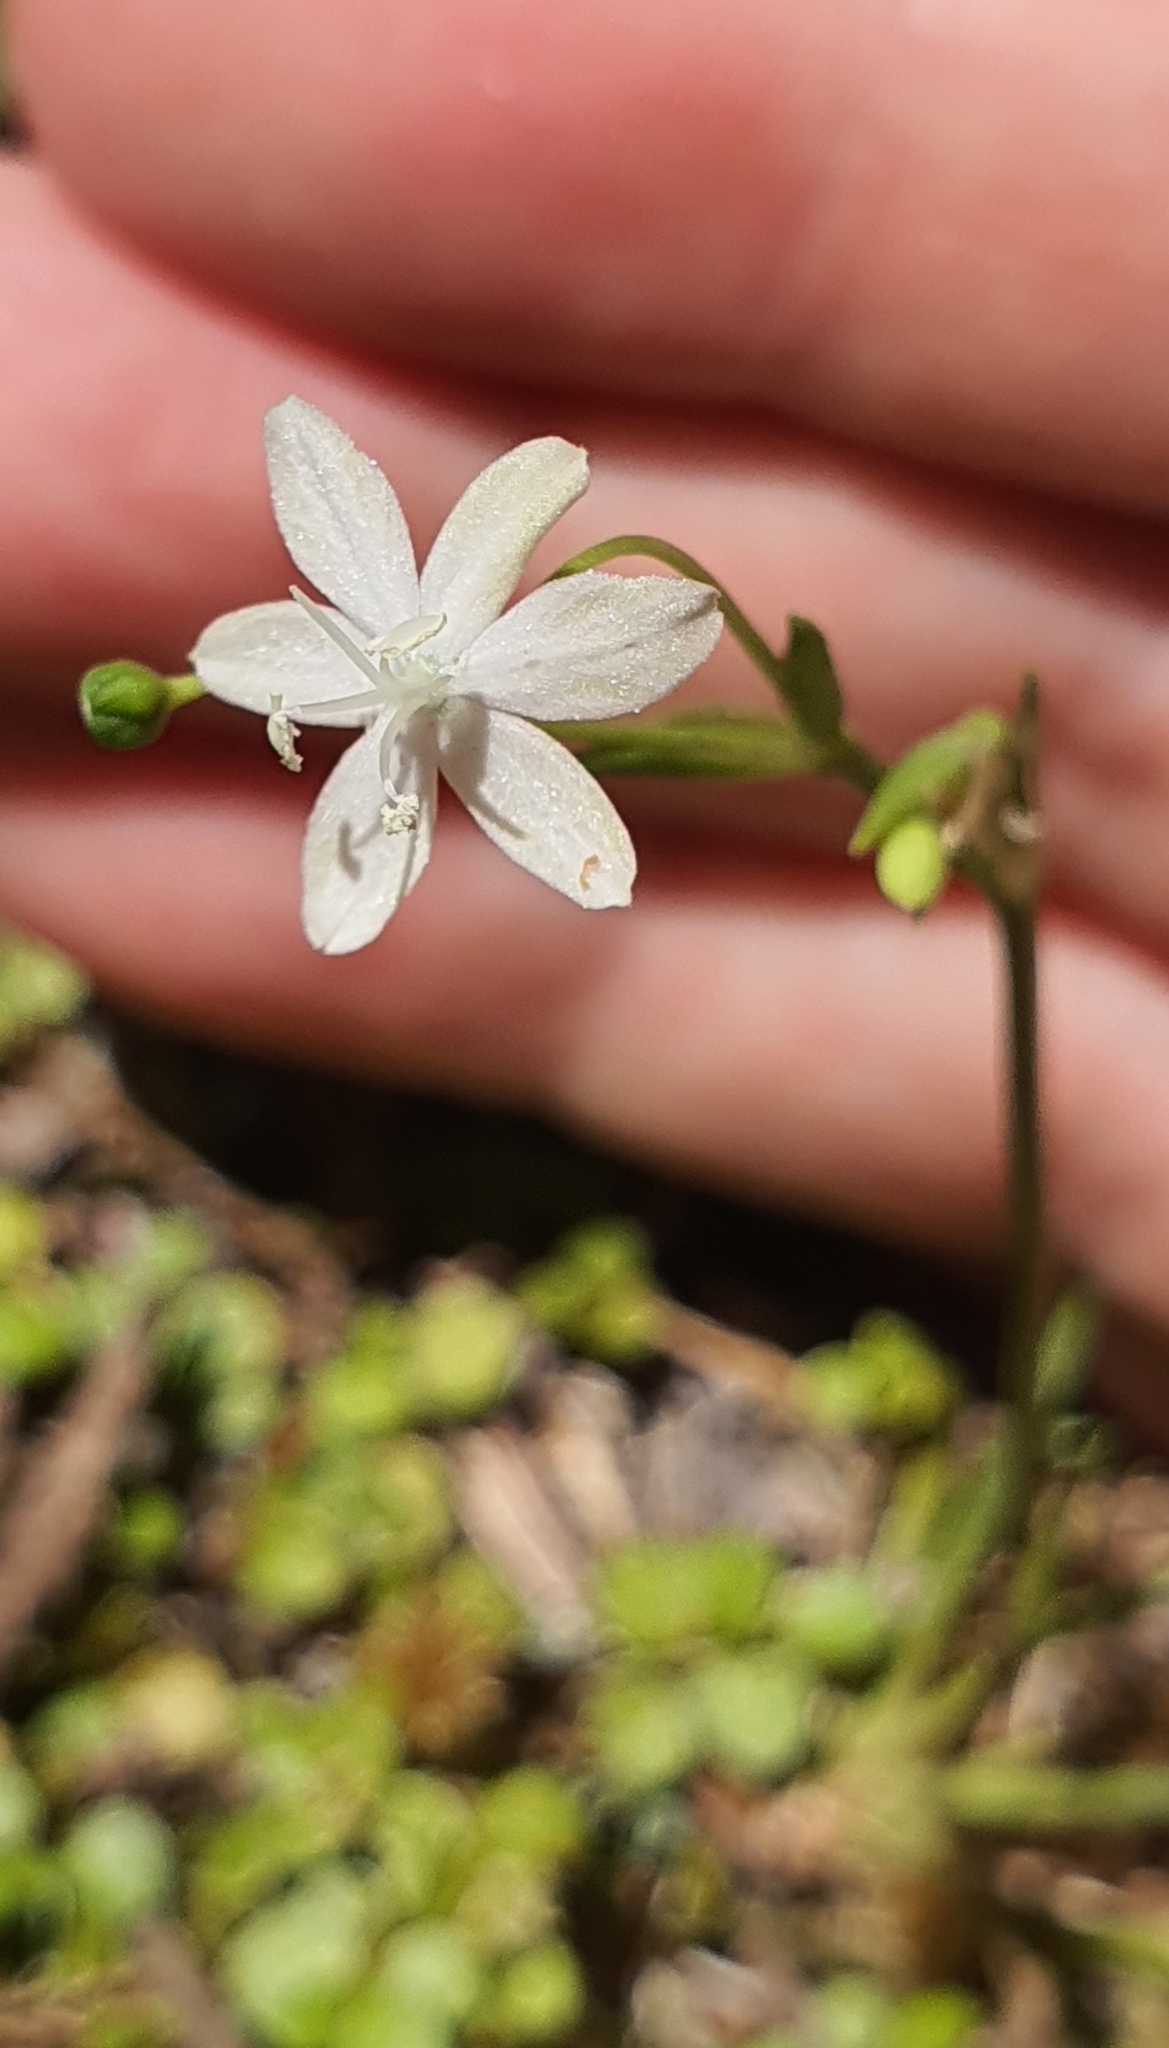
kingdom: Plantae
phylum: Tracheophyta
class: Liliopsida
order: Asparagales
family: Iridaceae
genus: Libertia
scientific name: Libertia micrantha
